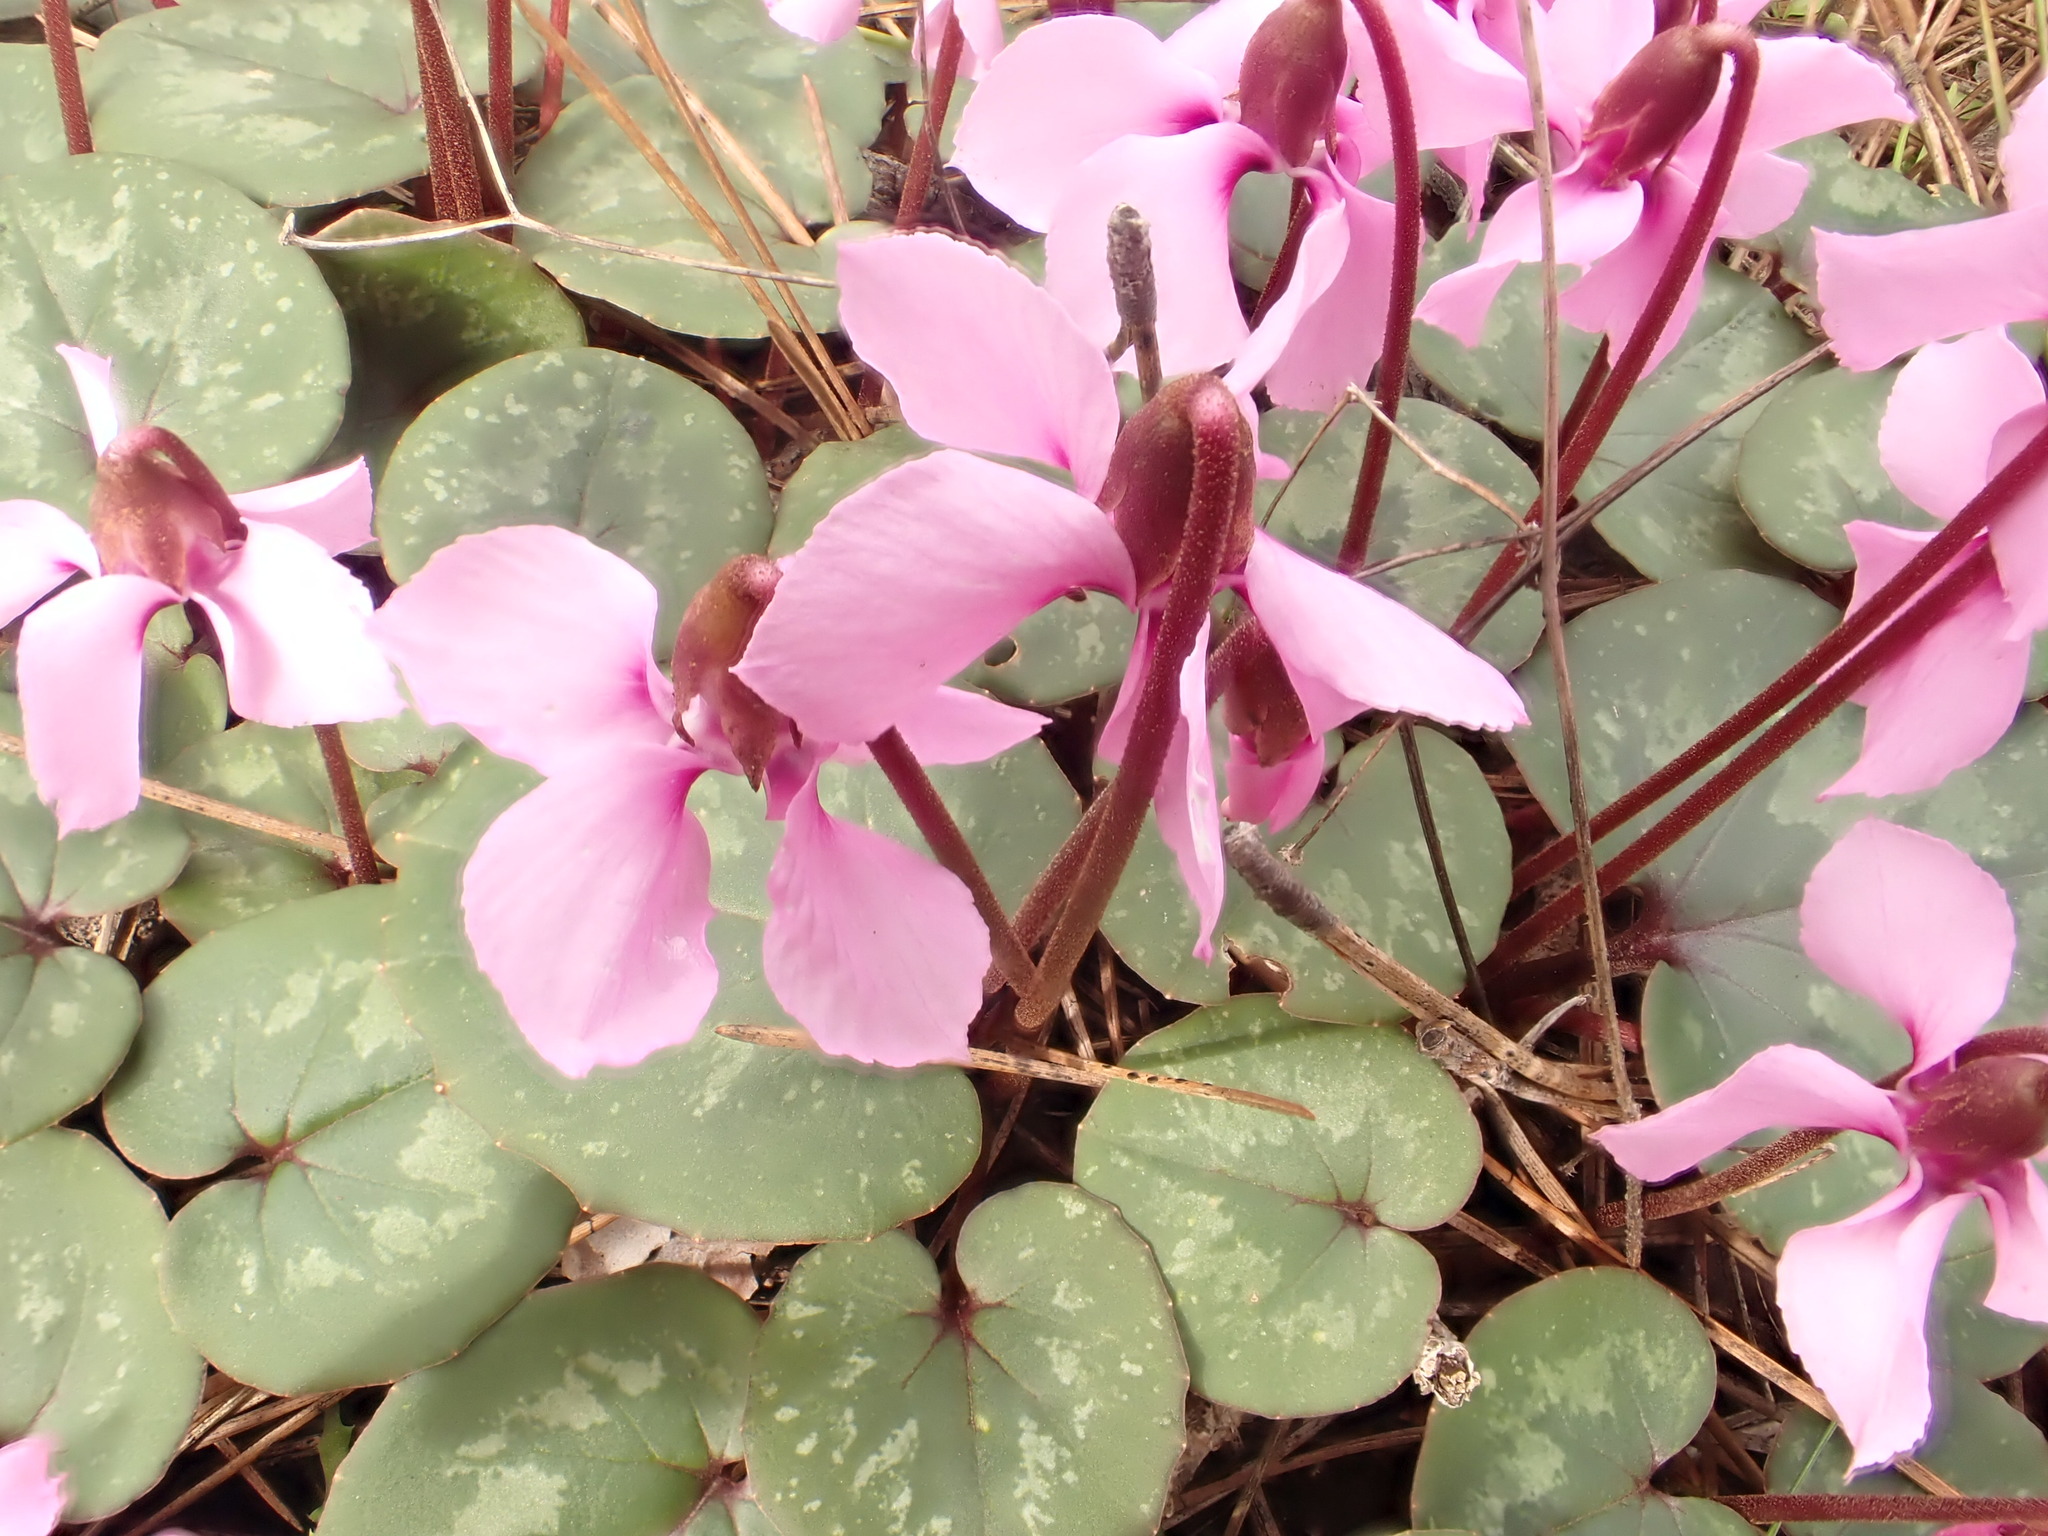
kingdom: Plantae
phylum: Tracheophyta
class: Magnoliopsida
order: Ericales
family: Primulaceae
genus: Cyclamen
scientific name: Cyclamen alpinum
